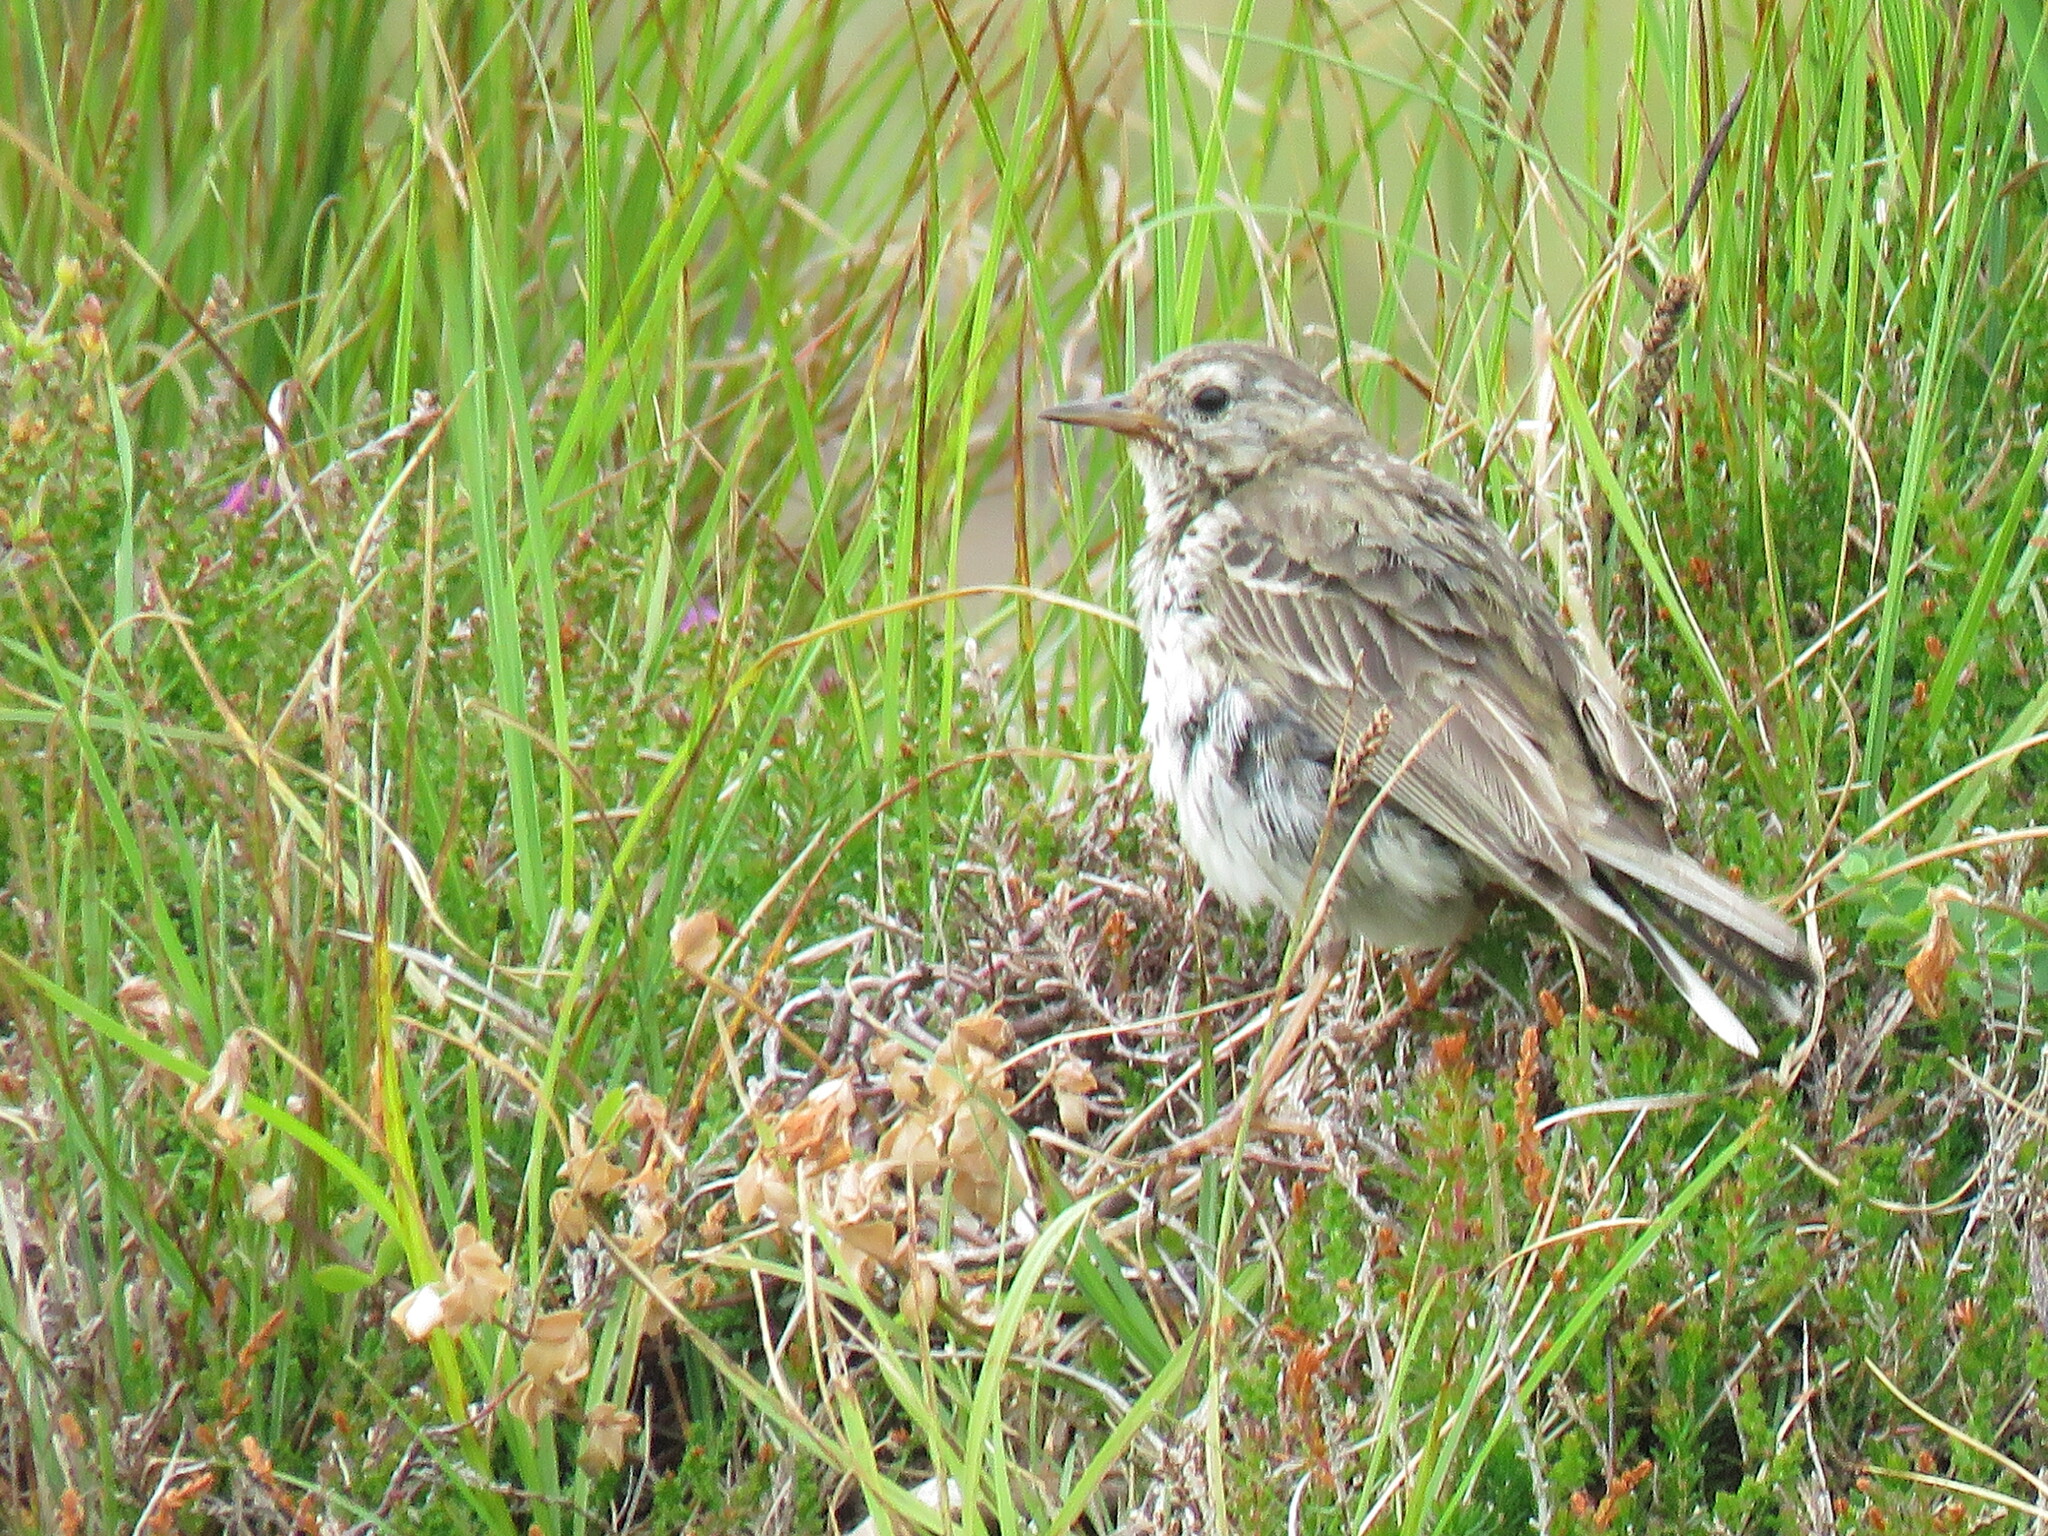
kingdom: Animalia
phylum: Chordata
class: Aves
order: Passeriformes
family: Motacillidae
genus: Anthus
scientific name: Anthus pratensis
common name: Meadow pipit
